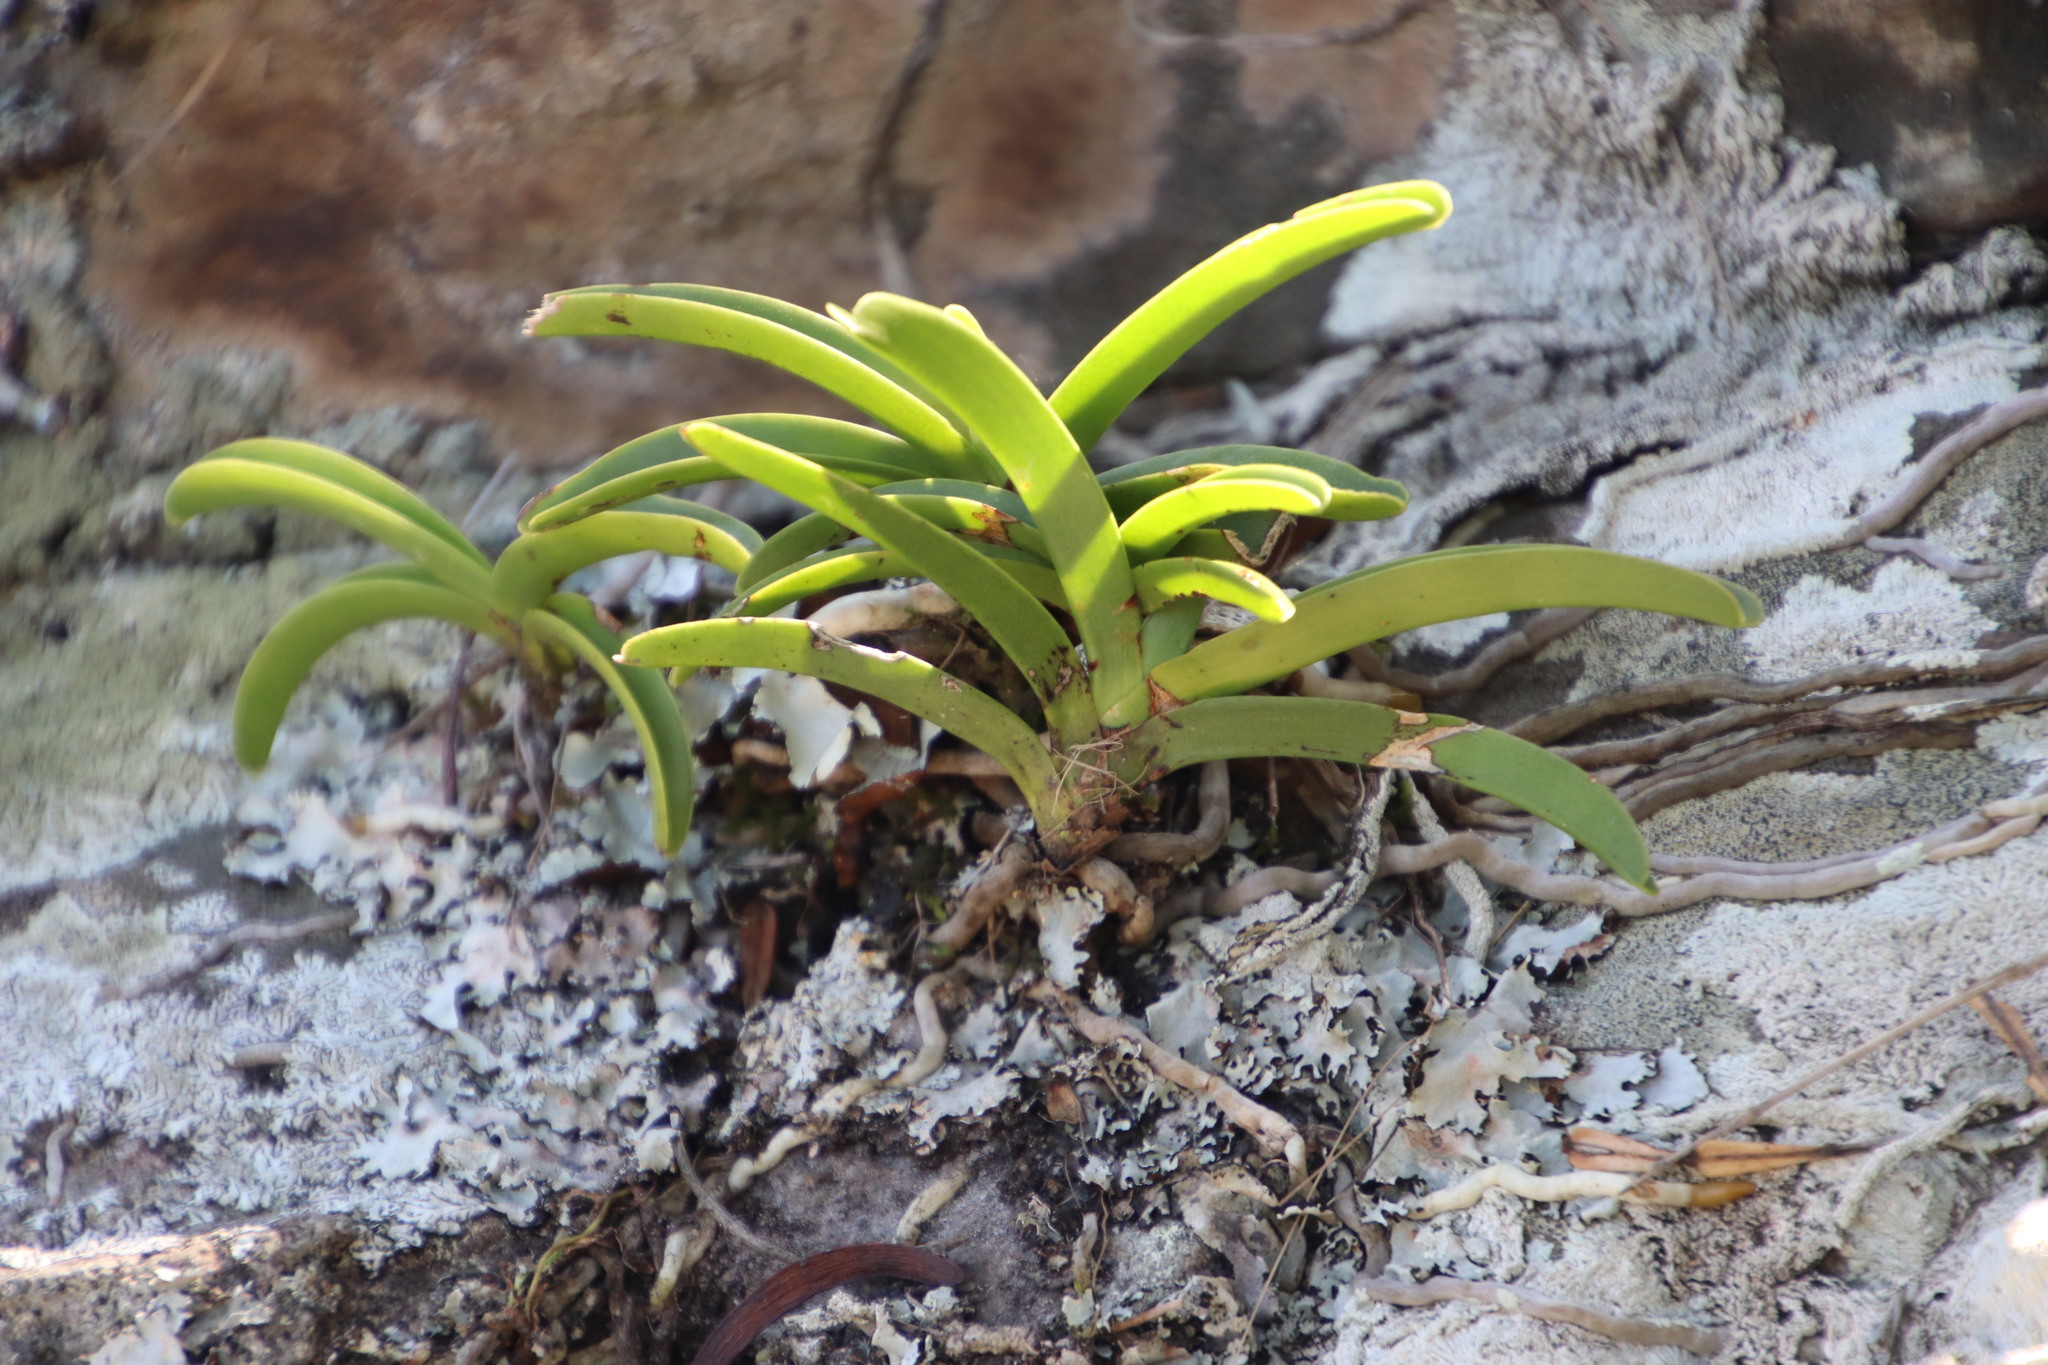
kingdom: Plantae
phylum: Tracheophyta
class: Liliopsida
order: Asparagales
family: Orchidaceae
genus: Rangaeris
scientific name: Rangaeris muscicola
